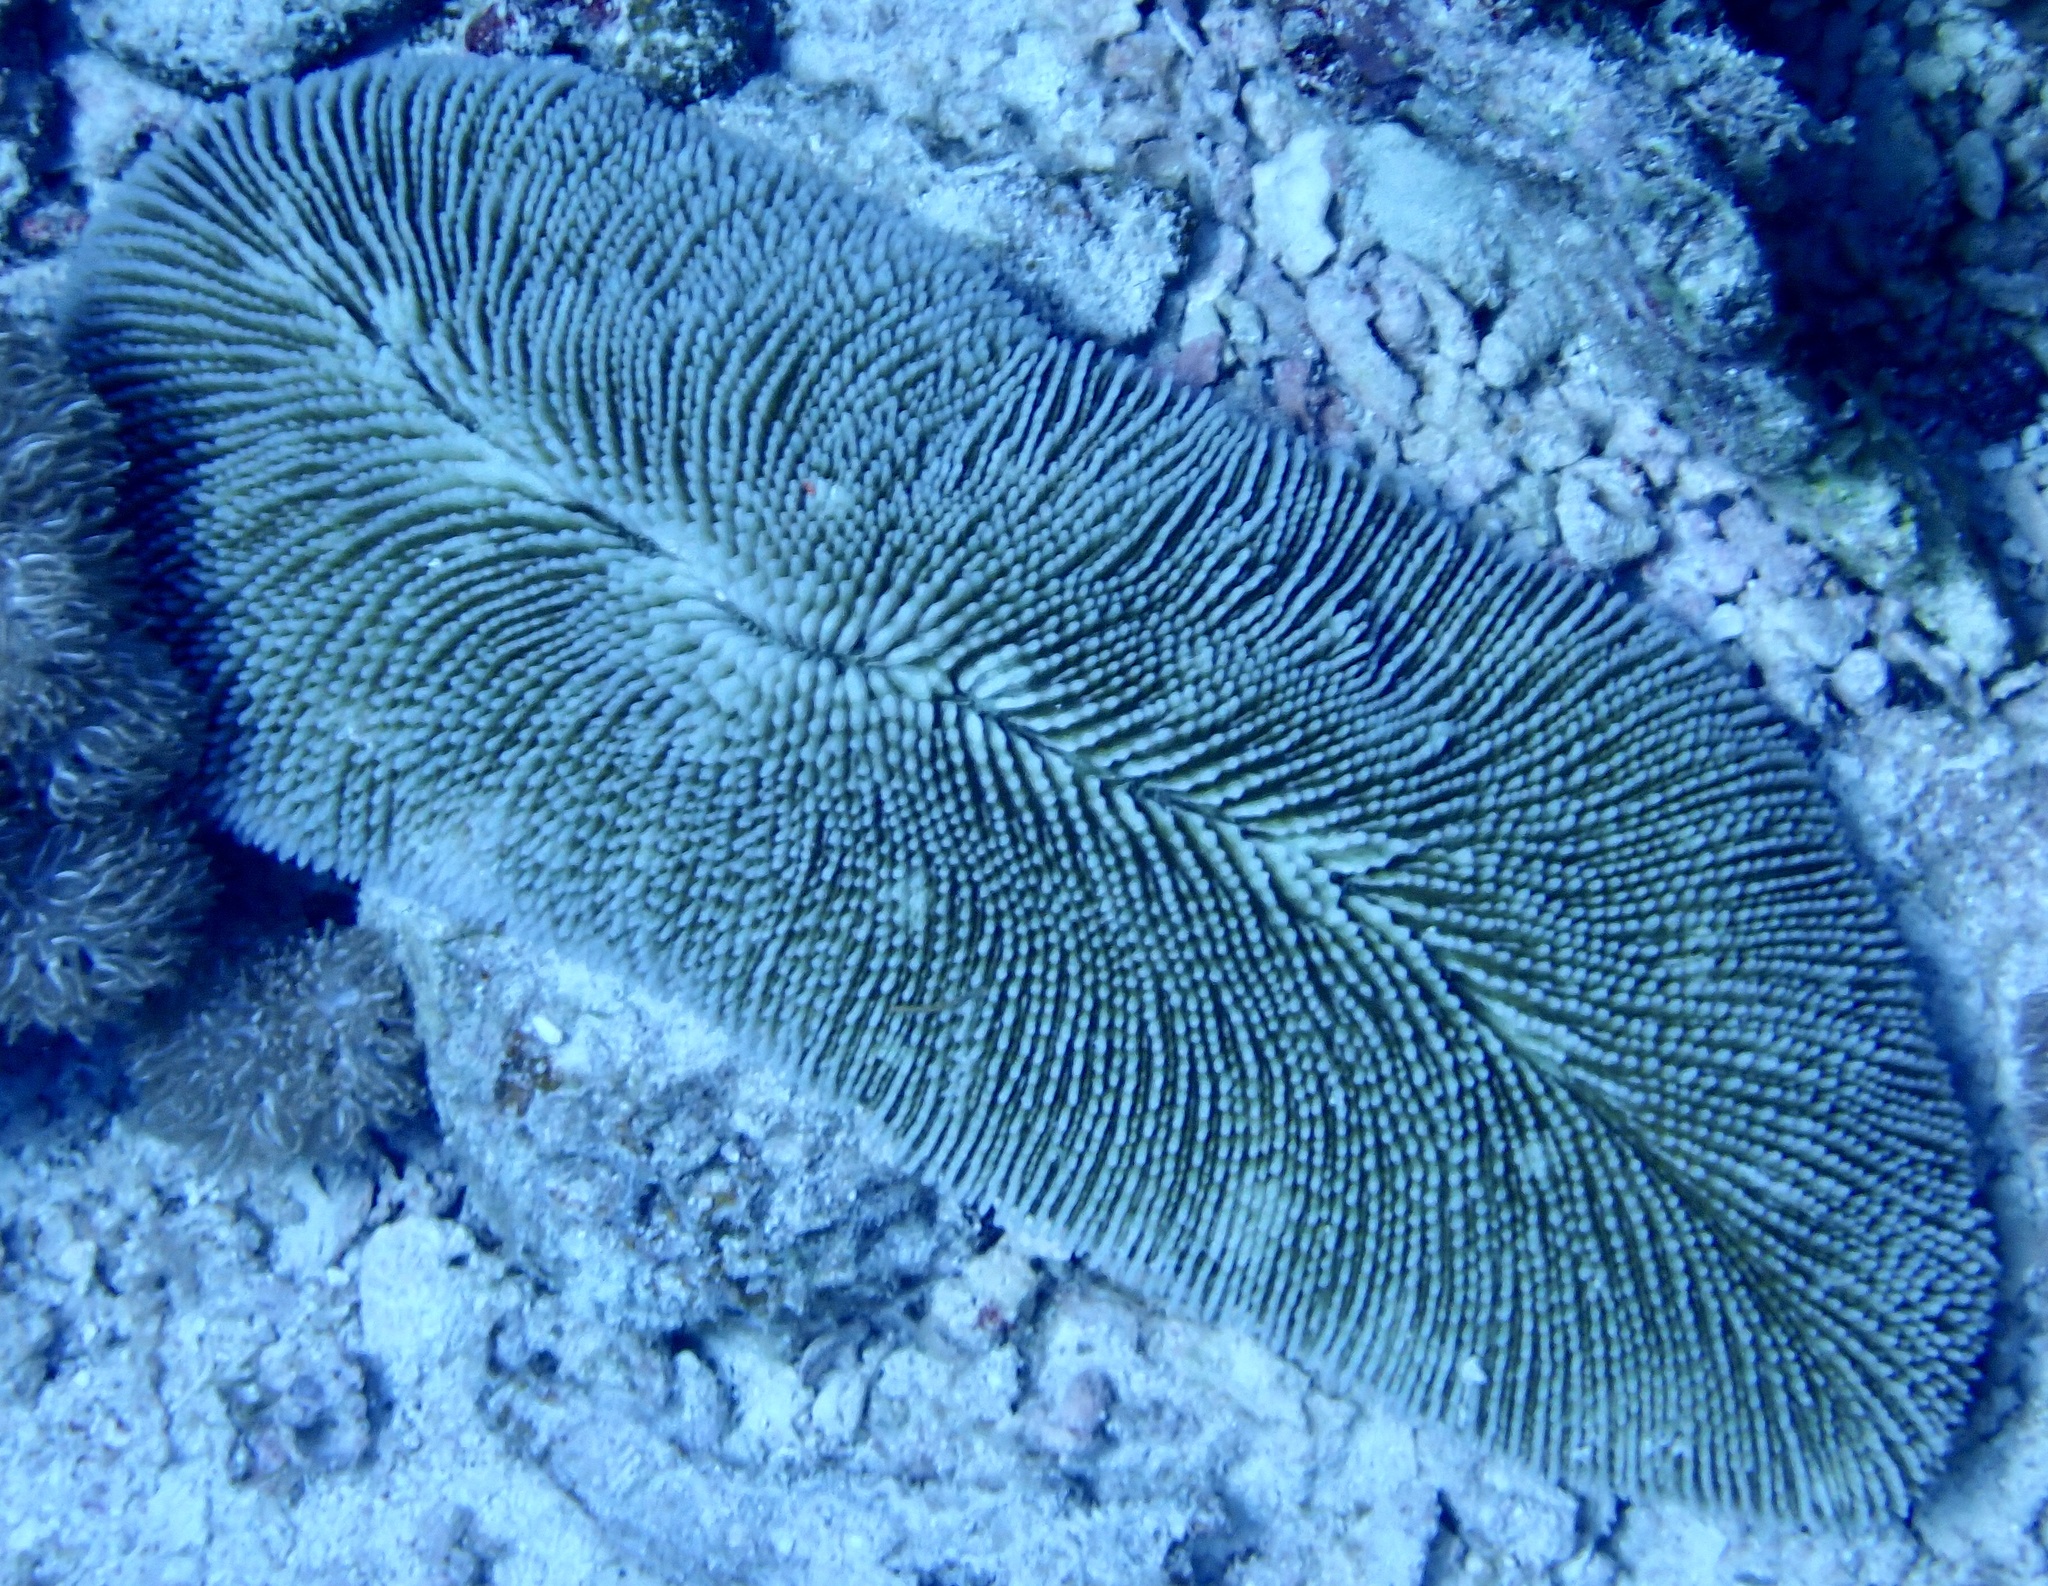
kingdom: Animalia
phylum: Cnidaria
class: Anthozoa
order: Scleractinia
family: Fungiidae
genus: Ctenactis
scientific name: Ctenactis crassa
